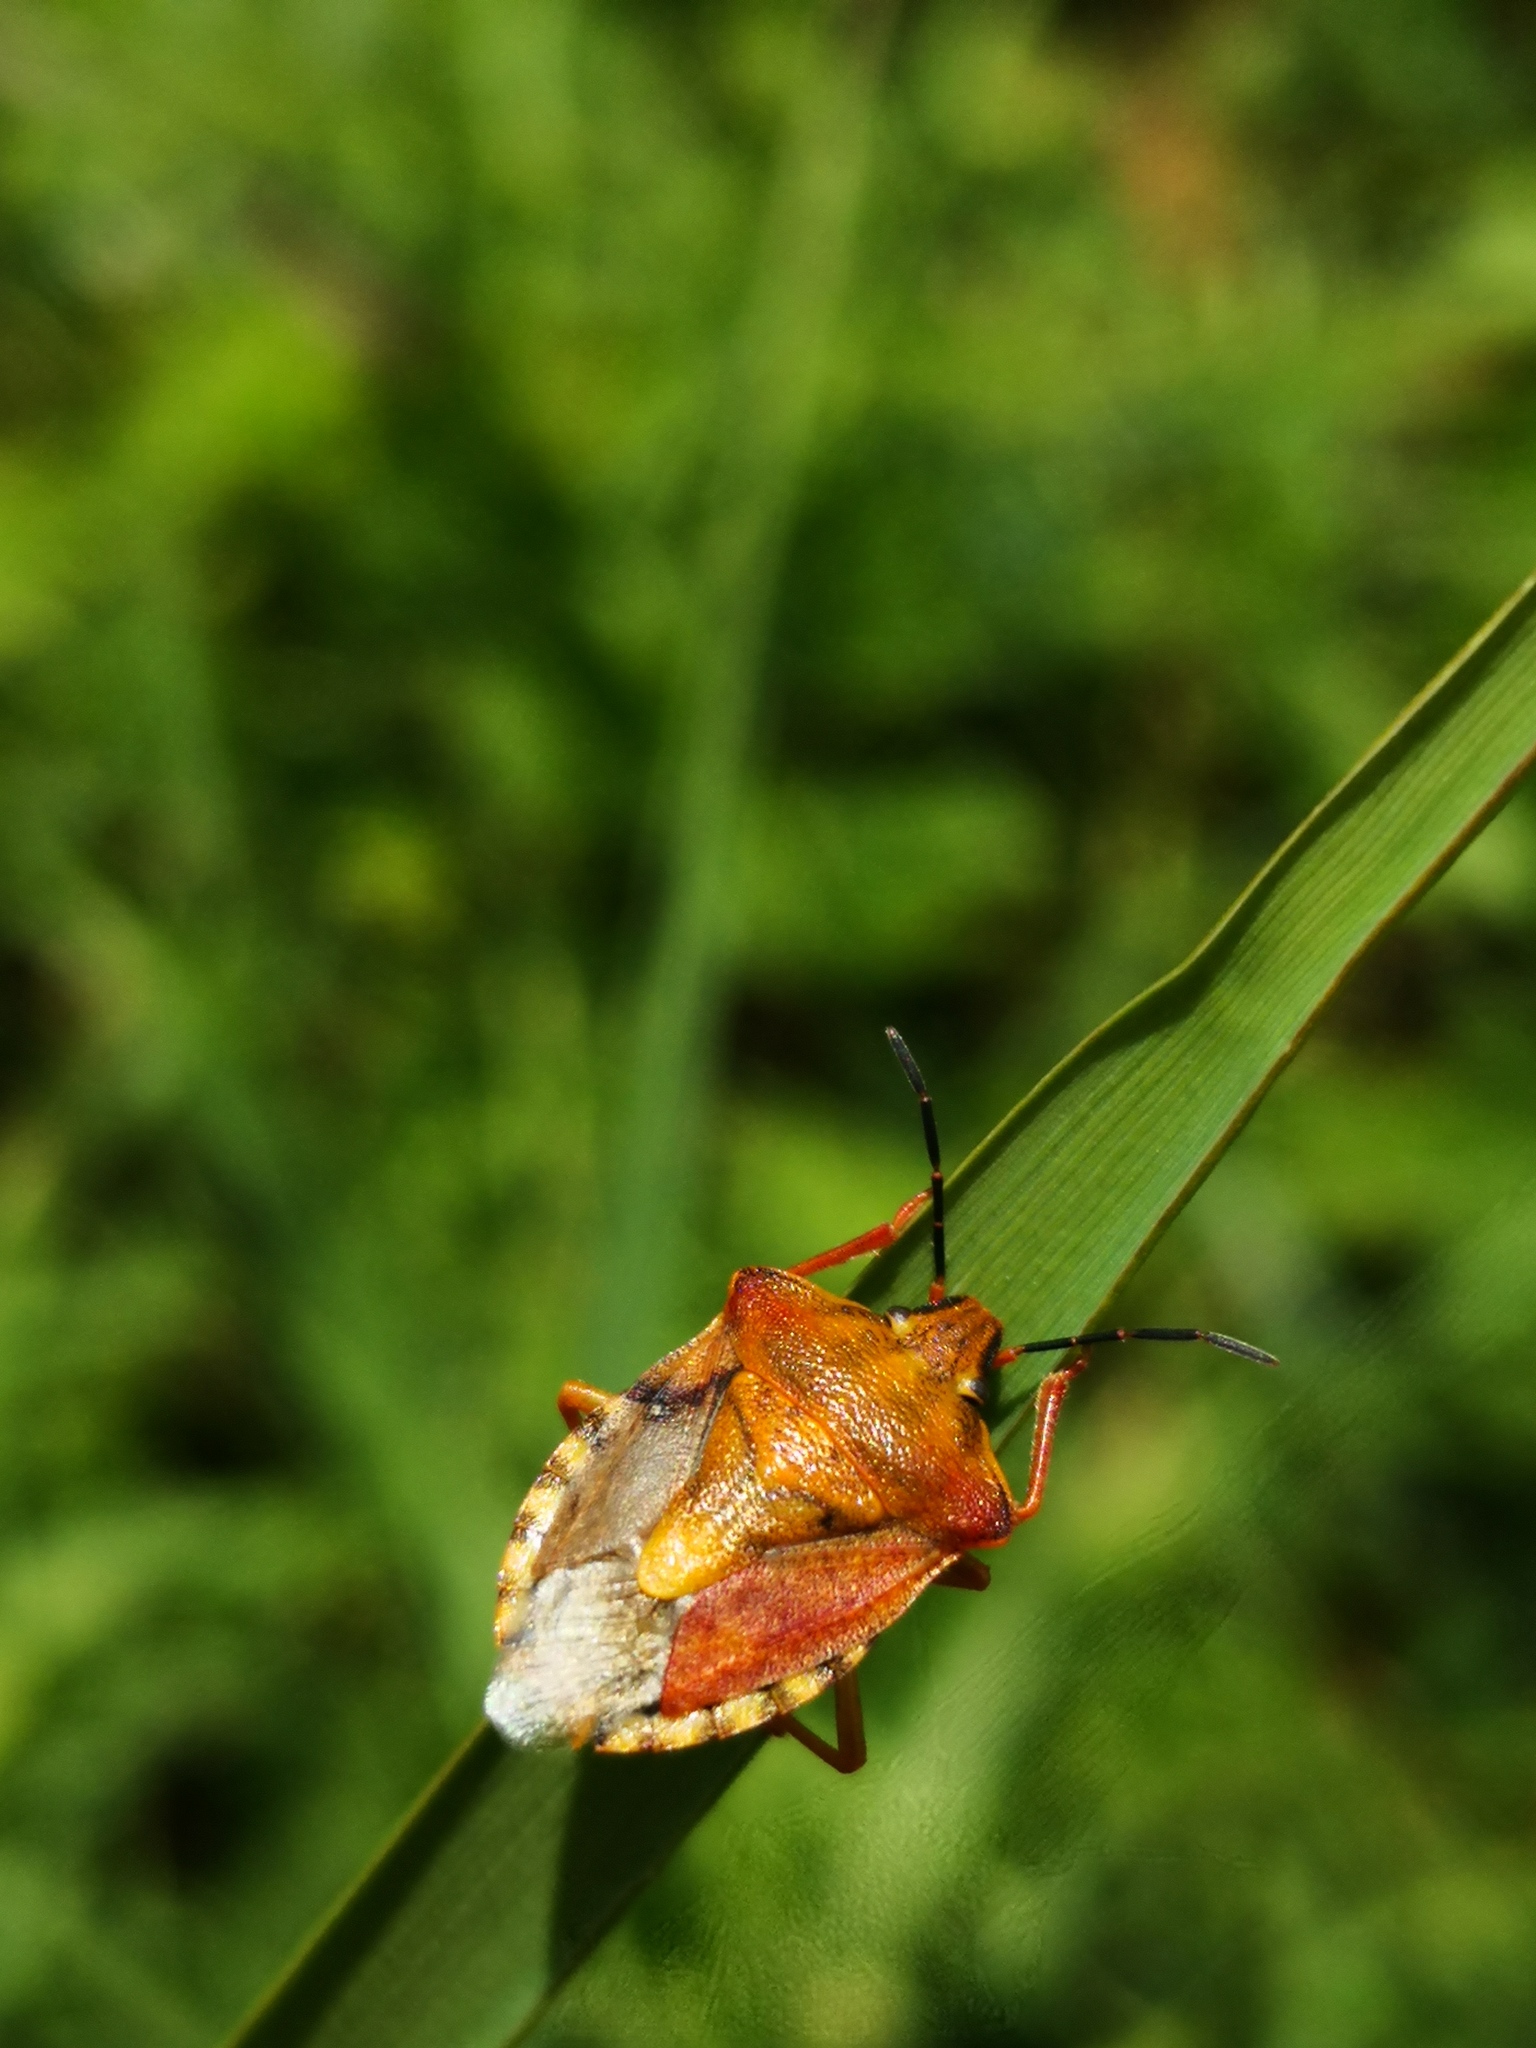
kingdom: Animalia
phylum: Arthropoda
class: Insecta
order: Hemiptera
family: Pentatomidae
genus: Carpocoris
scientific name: Carpocoris purpureipennis
